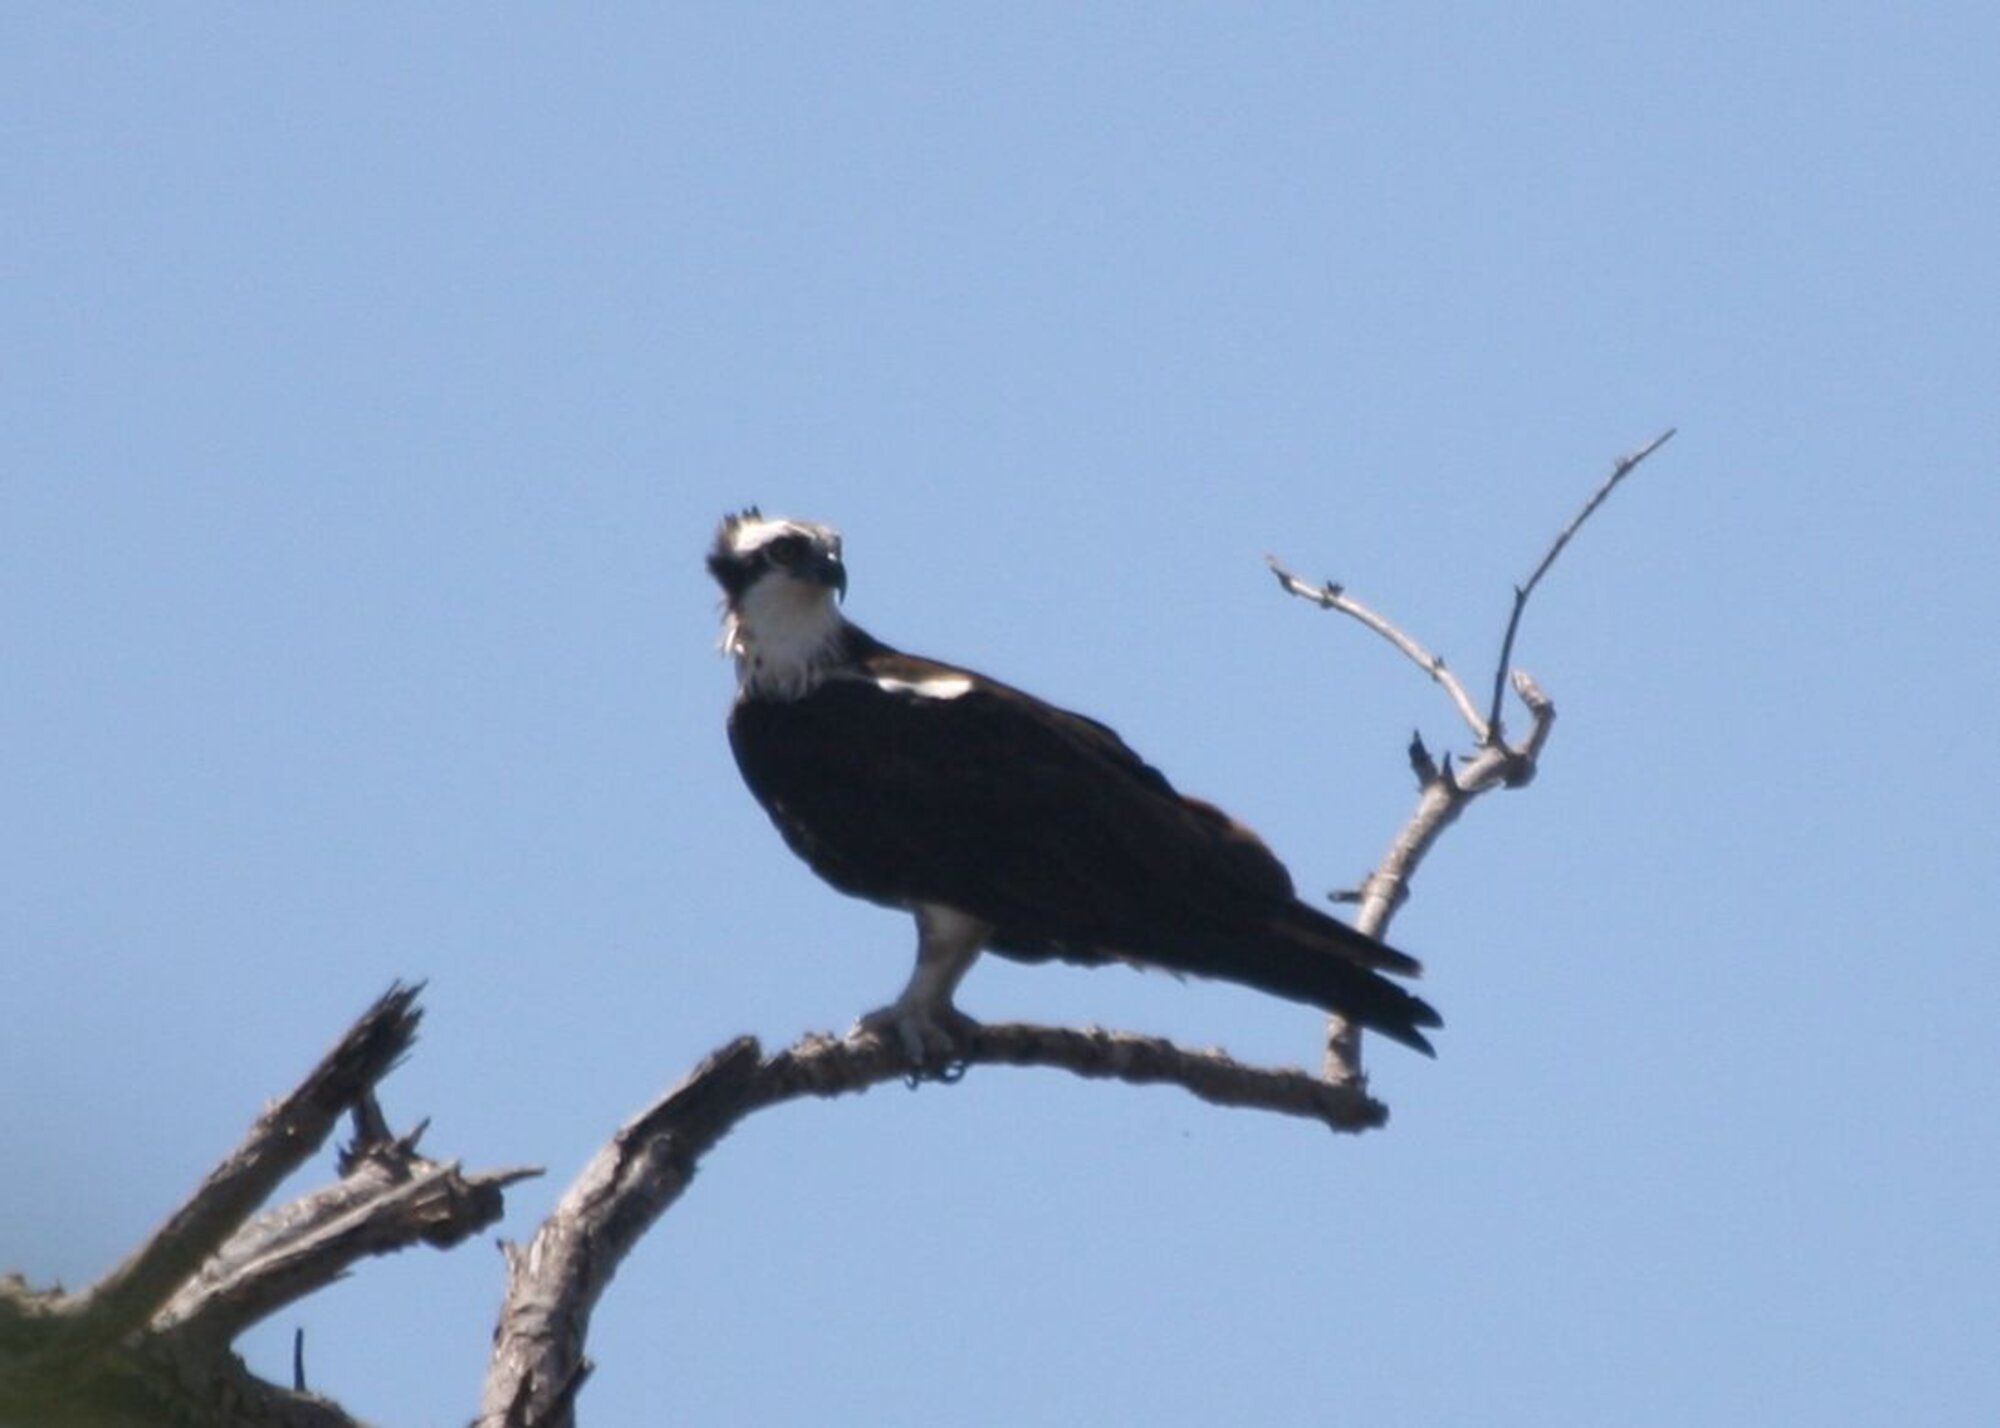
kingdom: Animalia
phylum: Chordata
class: Aves
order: Accipitriformes
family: Pandionidae
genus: Pandion
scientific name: Pandion haliaetus
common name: Osprey
